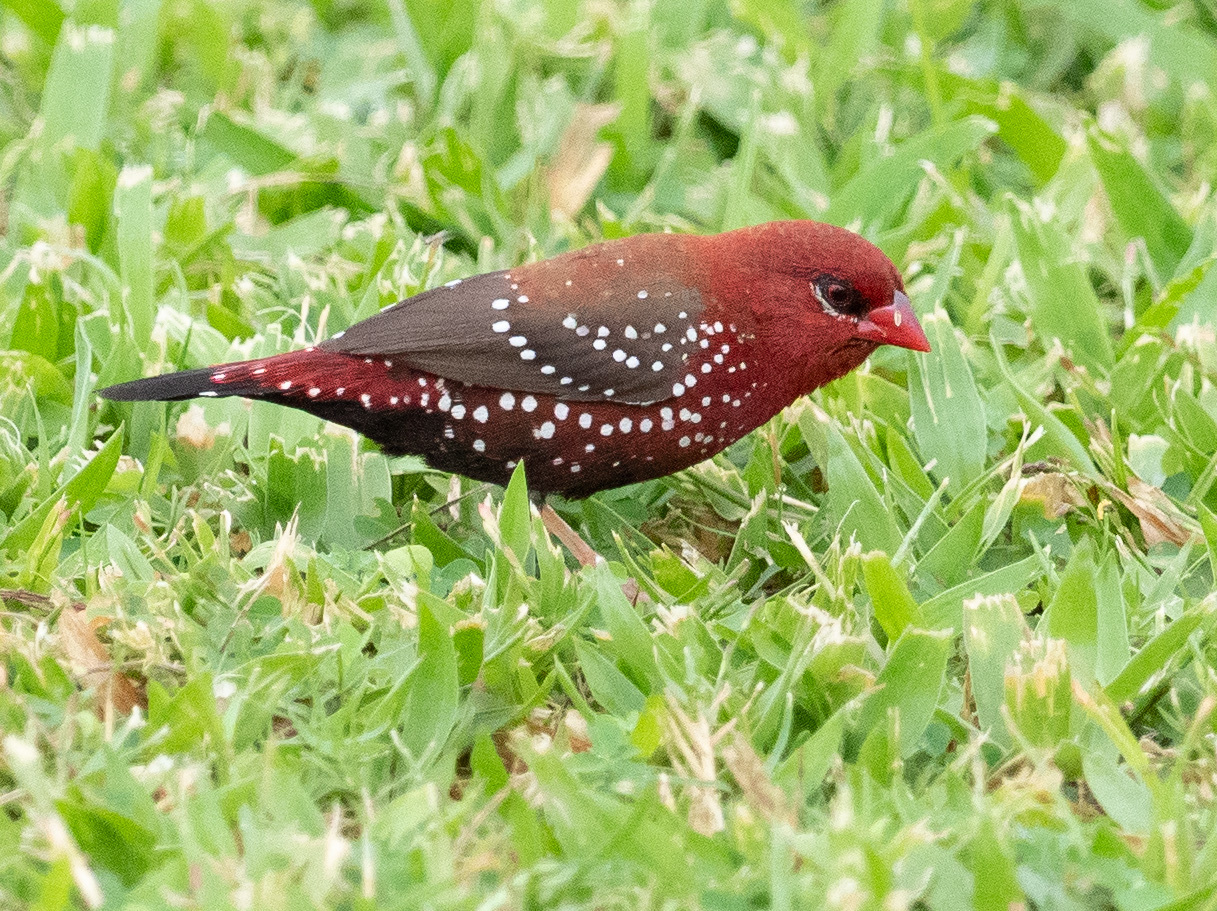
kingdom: Animalia
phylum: Chordata
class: Aves
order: Passeriformes
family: Estrildidae
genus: Amandava
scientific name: Amandava amandava
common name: Red avadavat
